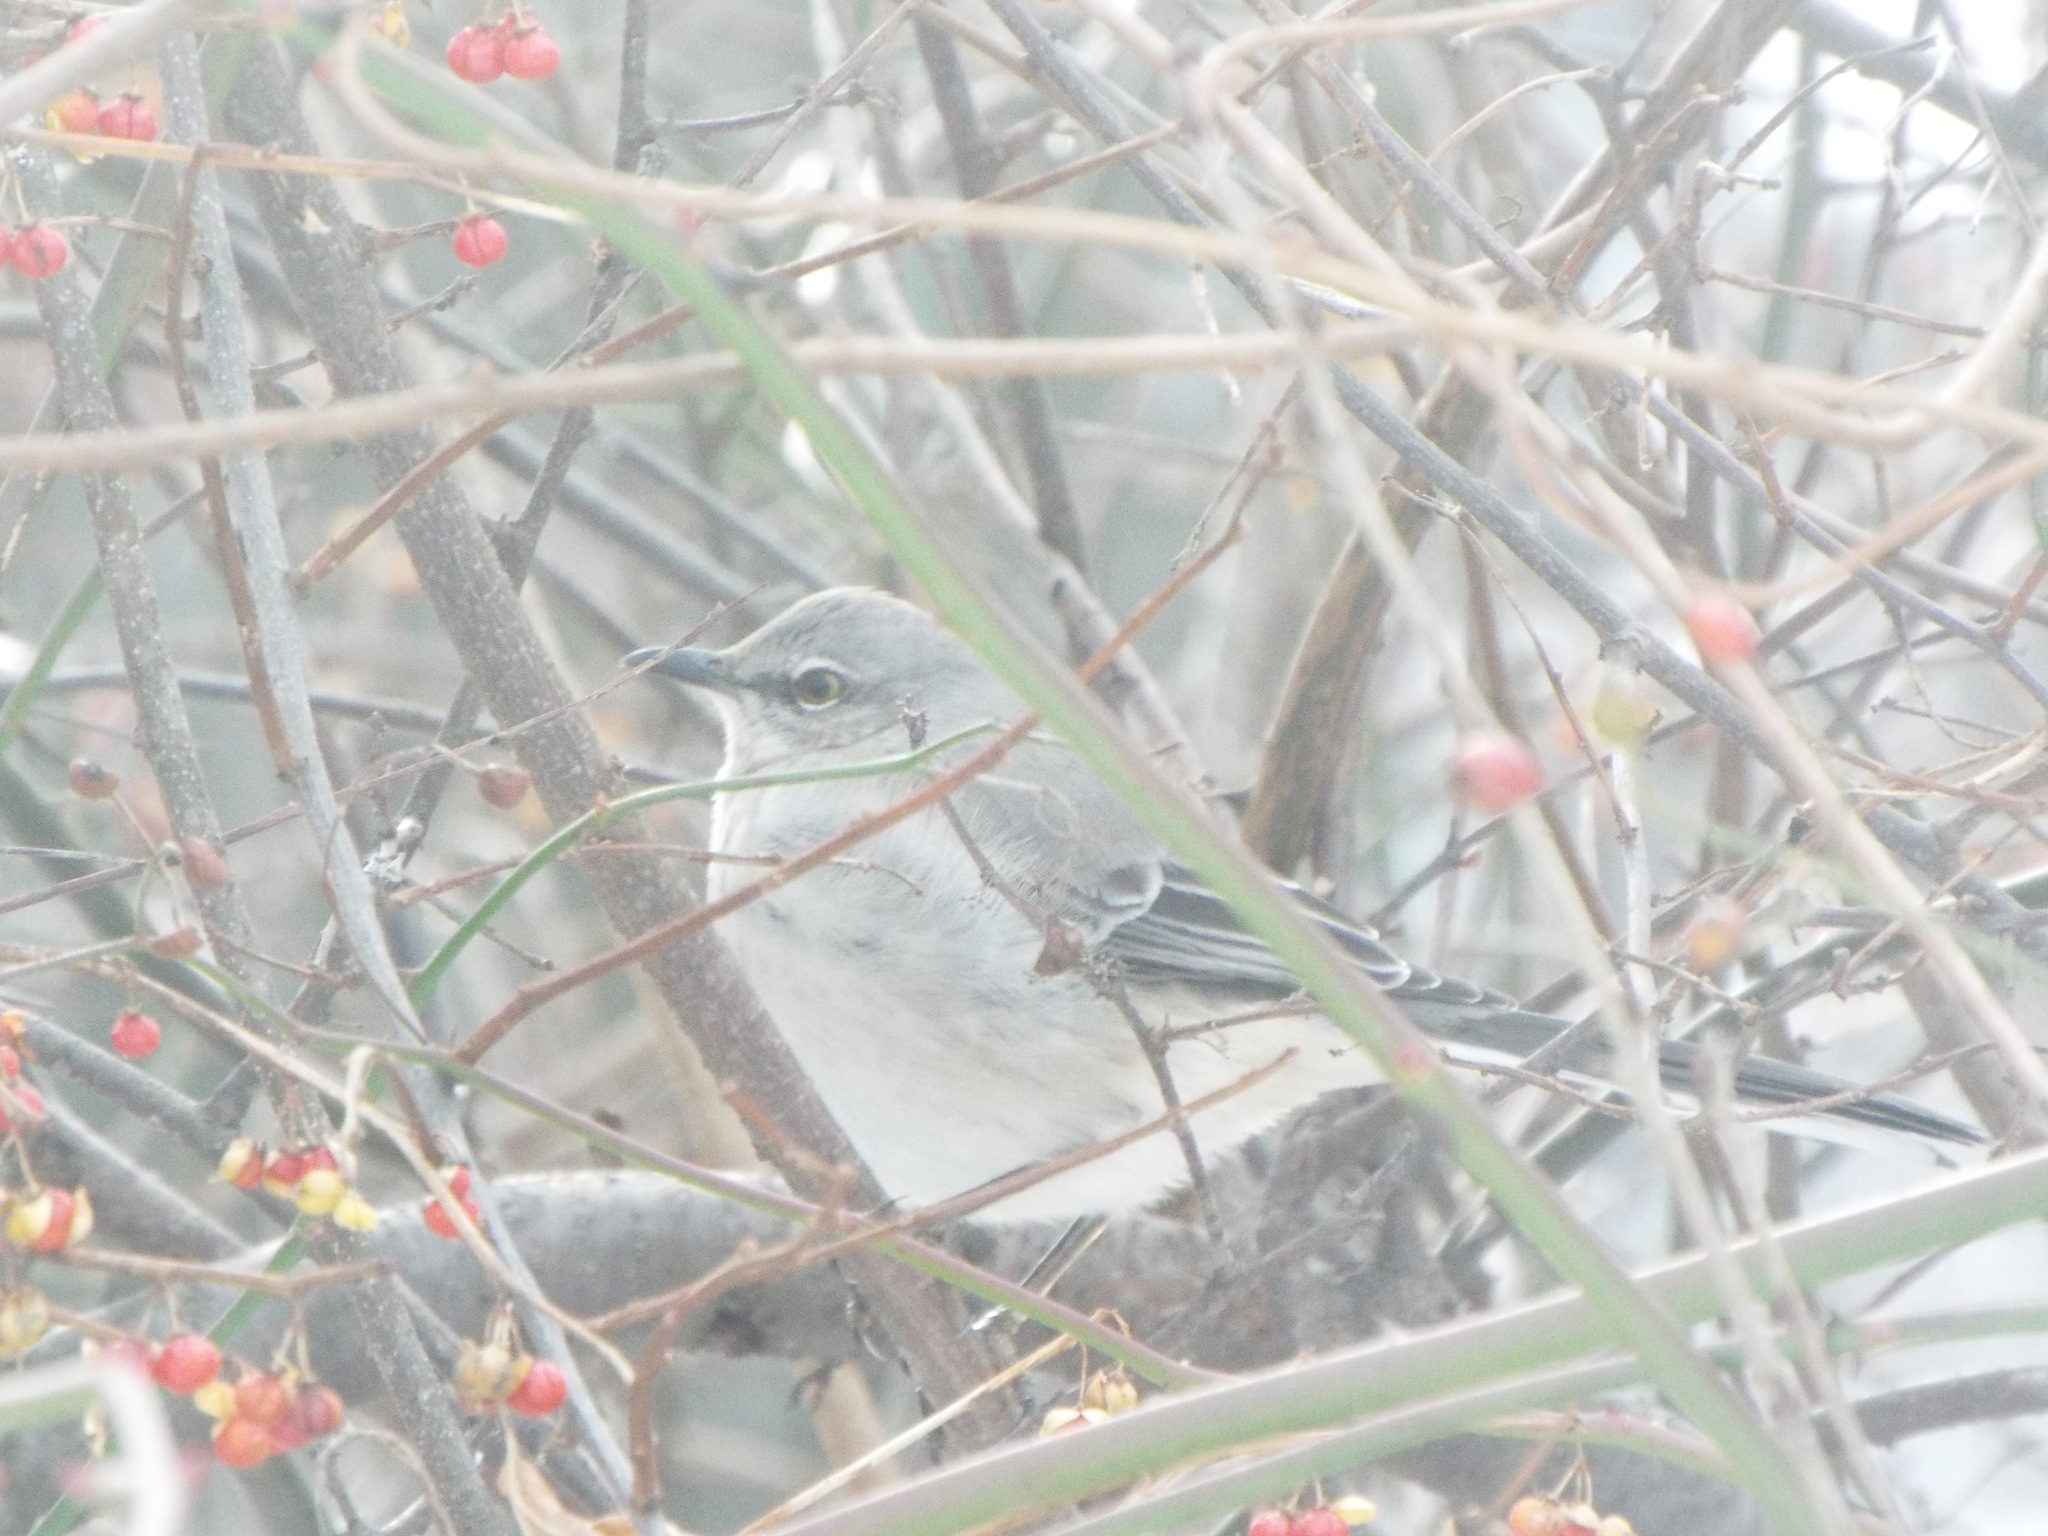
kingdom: Animalia
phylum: Chordata
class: Aves
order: Passeriformes
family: Mimidae
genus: Mimus
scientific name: Mimus polyglottos
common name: Northern mockingbird
